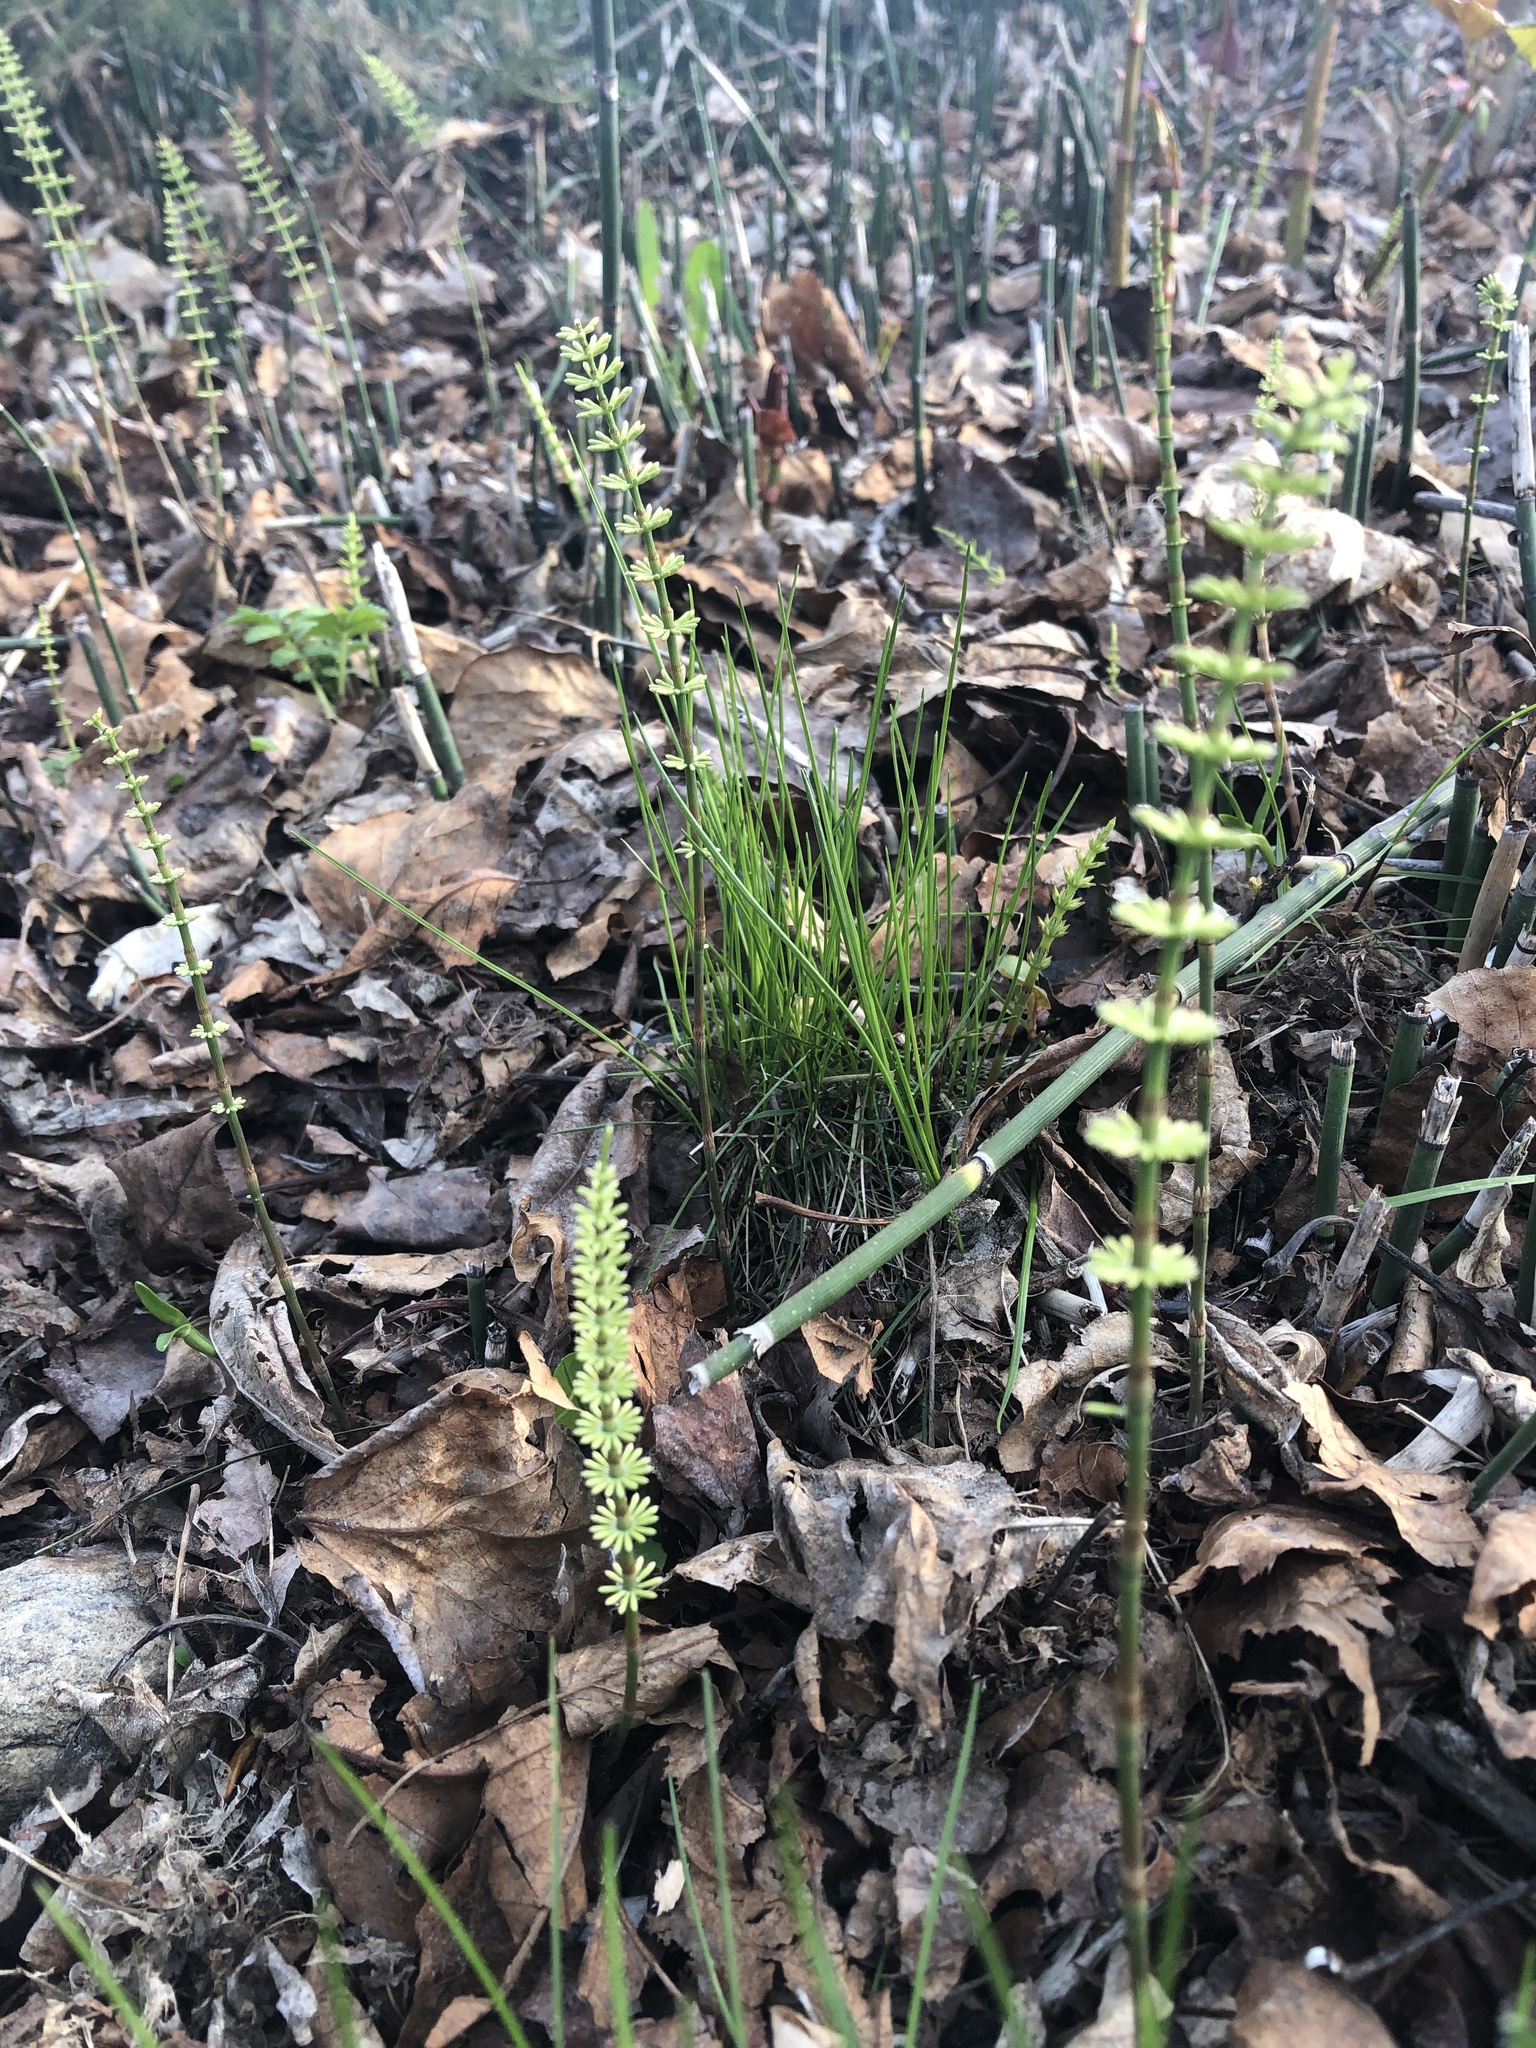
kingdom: Plantae
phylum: Tracheophyta
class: Polypodiopsida
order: Equisetales
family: Equisetaceae
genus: Equisetum
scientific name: Equisetum pratense
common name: Meadow horsetail
